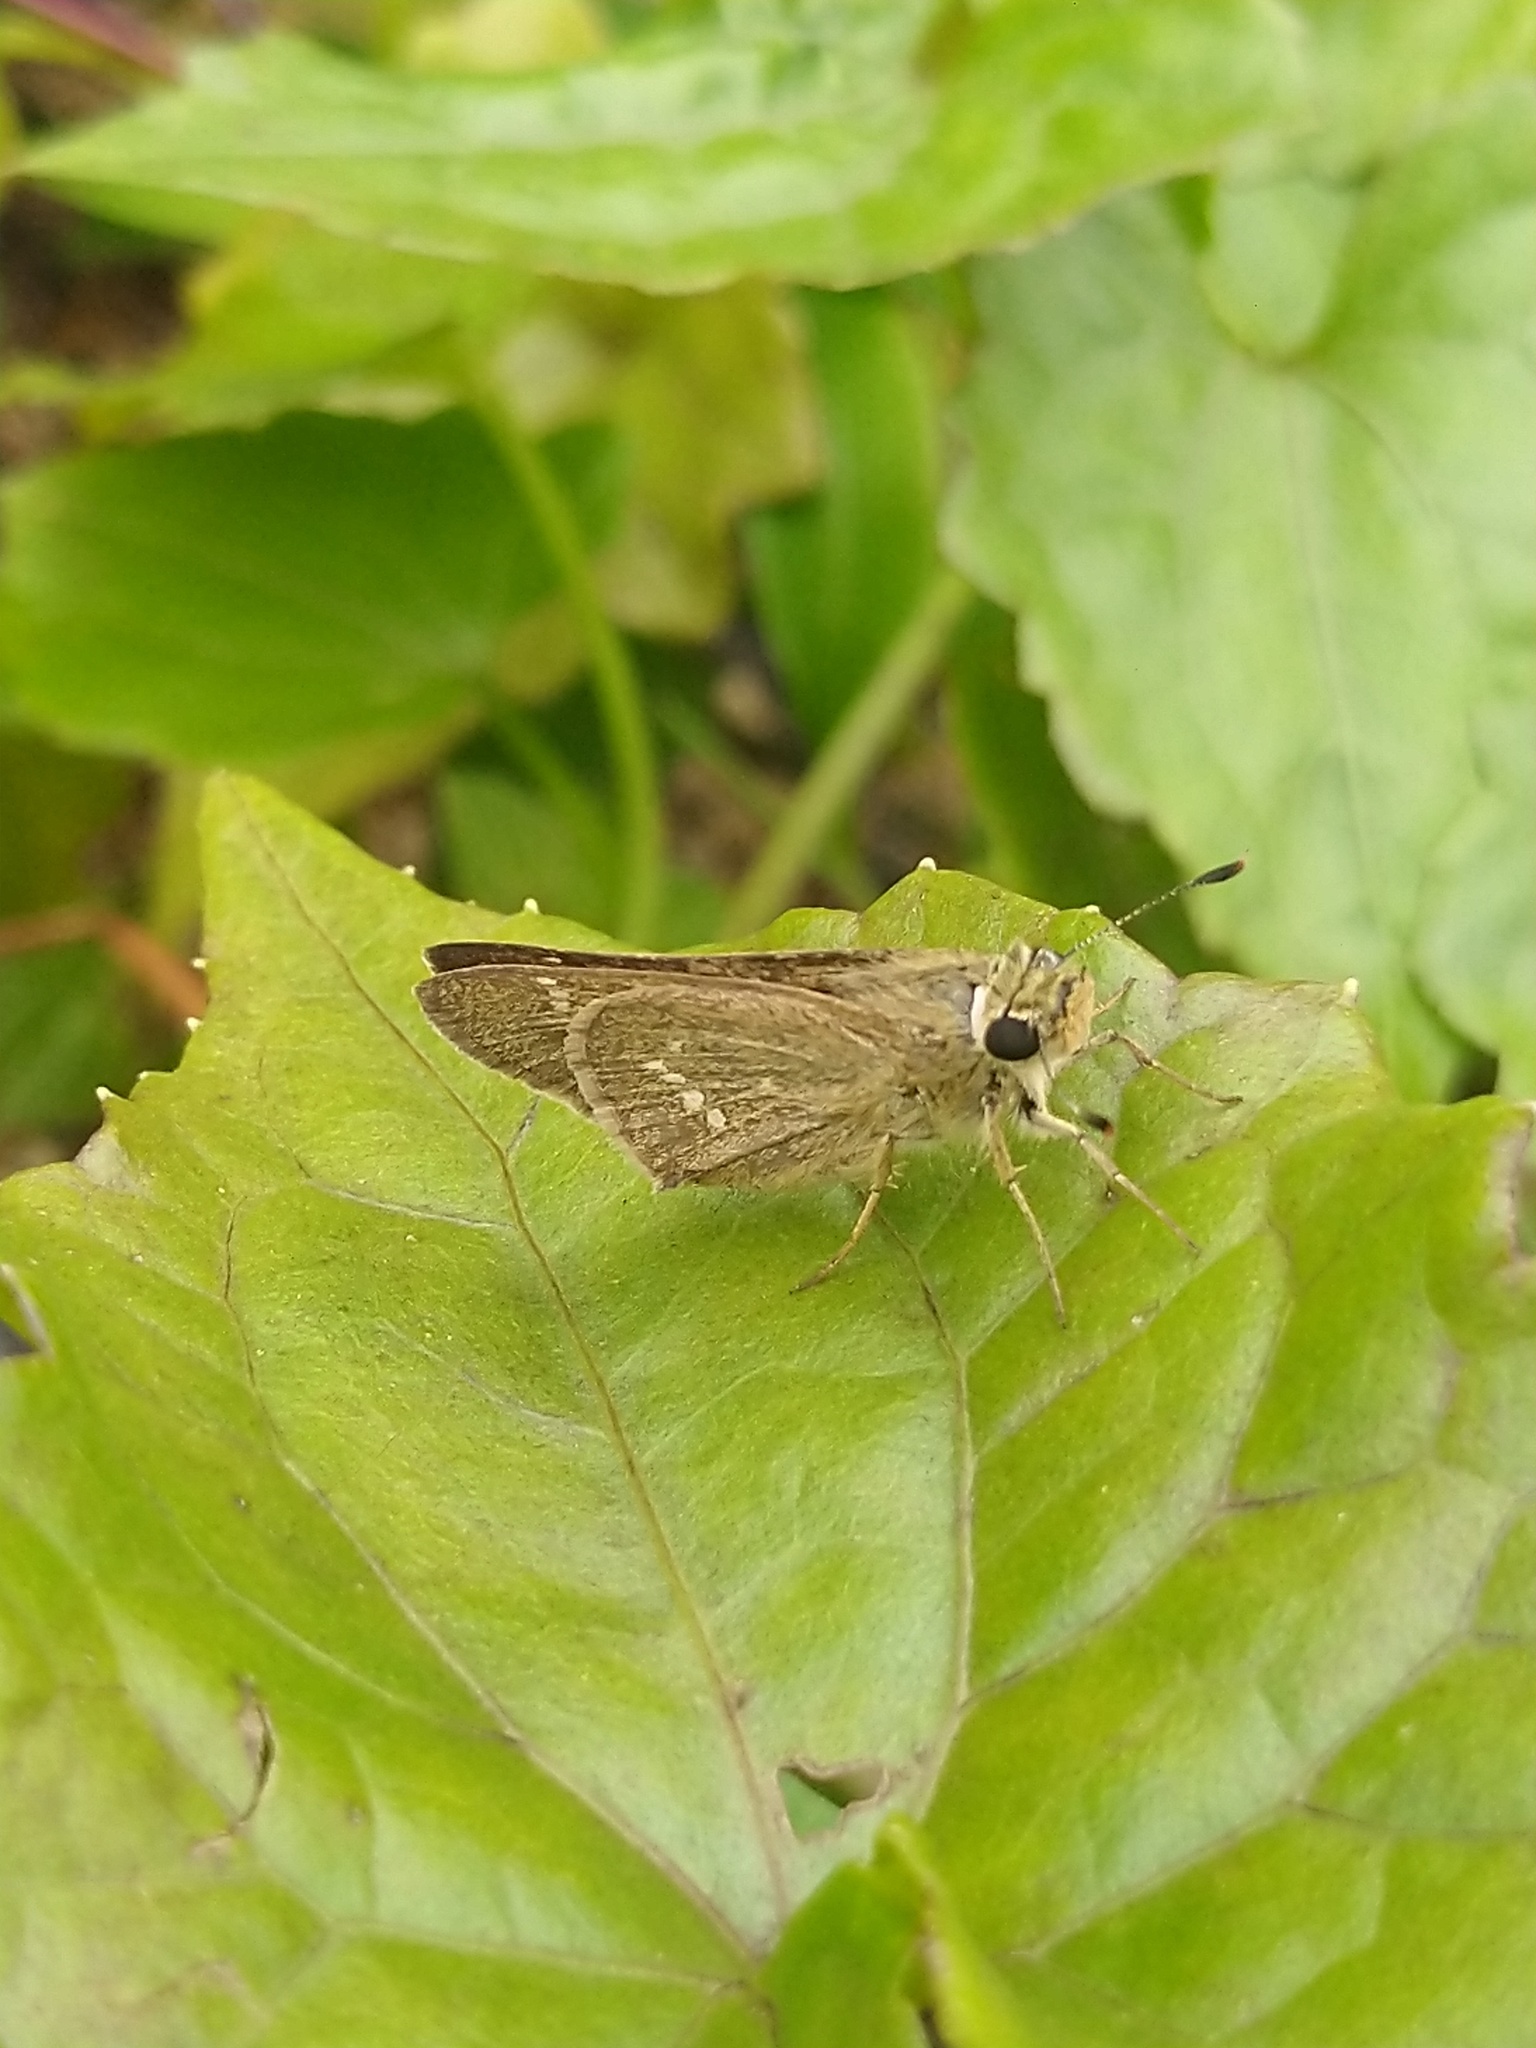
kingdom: Animalia
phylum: Arthropoda
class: Insecta
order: Lepidoptera
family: Hesperiidae
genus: Parnara
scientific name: Parnara naso
